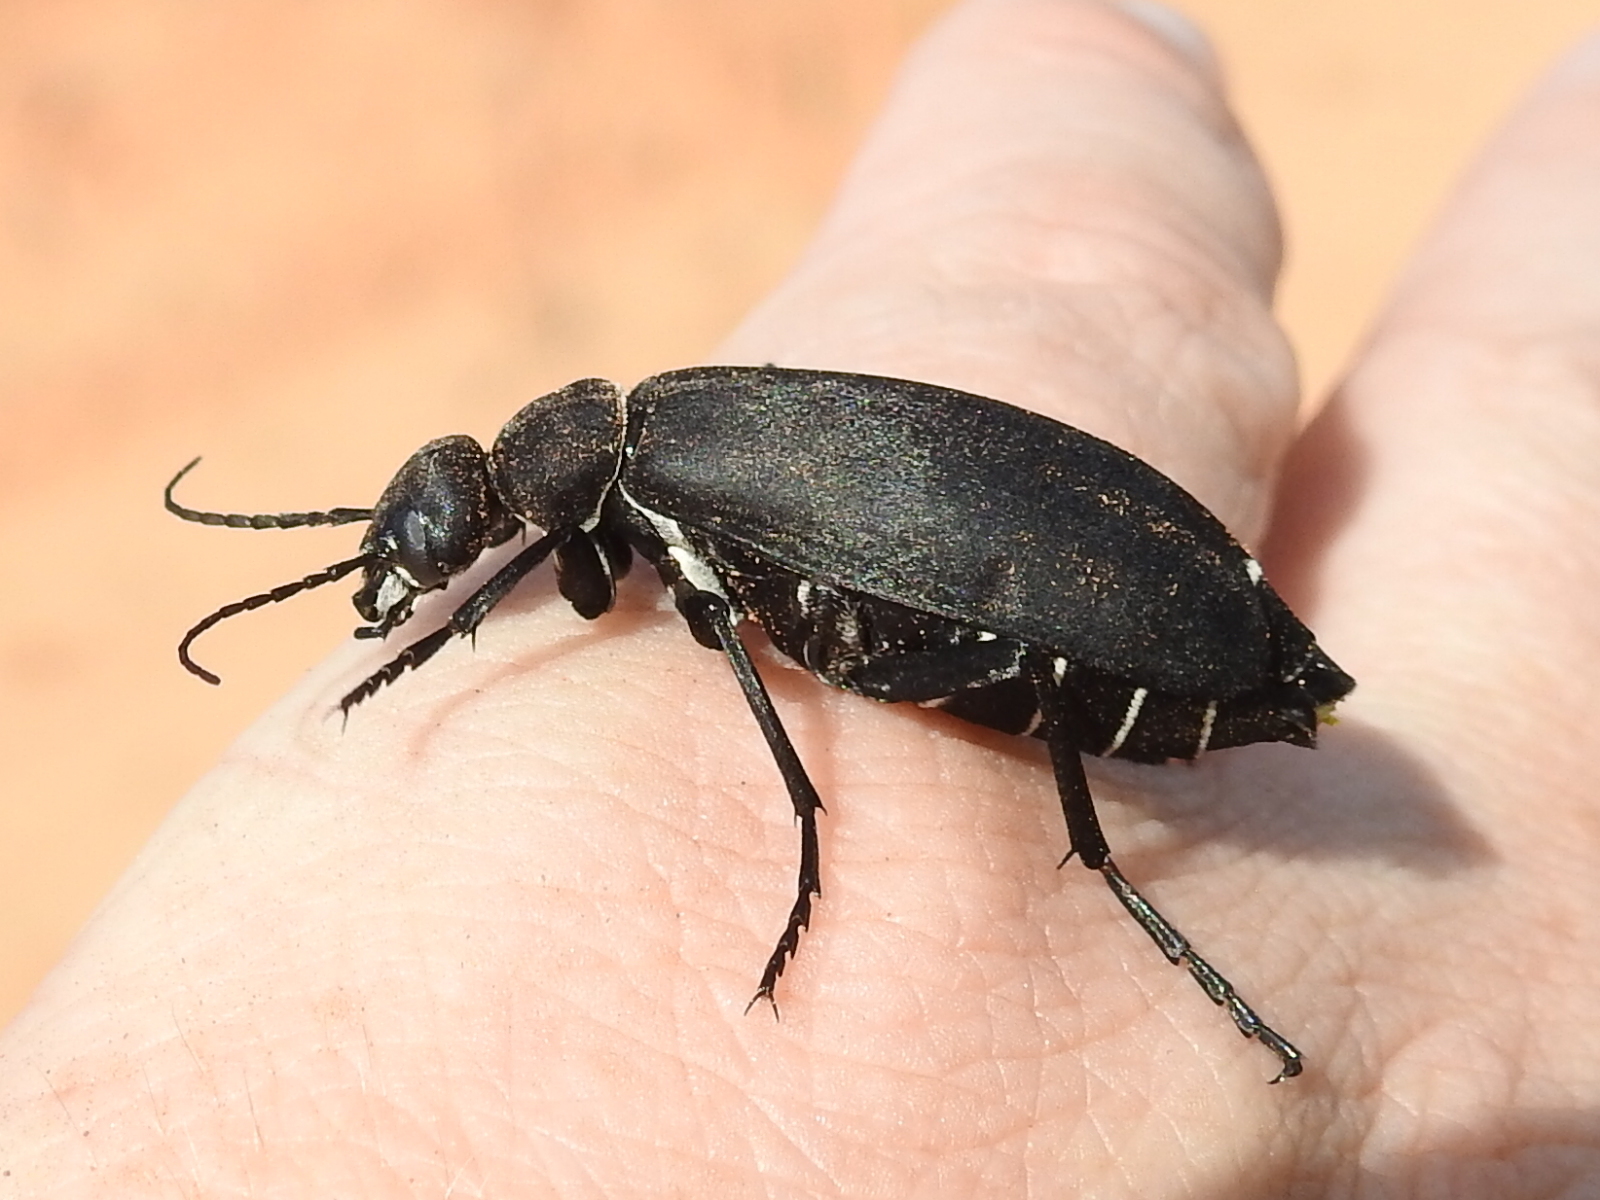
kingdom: Animalia
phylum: Arthropoda
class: Insecta
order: Coleoptera
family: Meloidae
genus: Epicauta
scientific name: Epicauta segmenta
